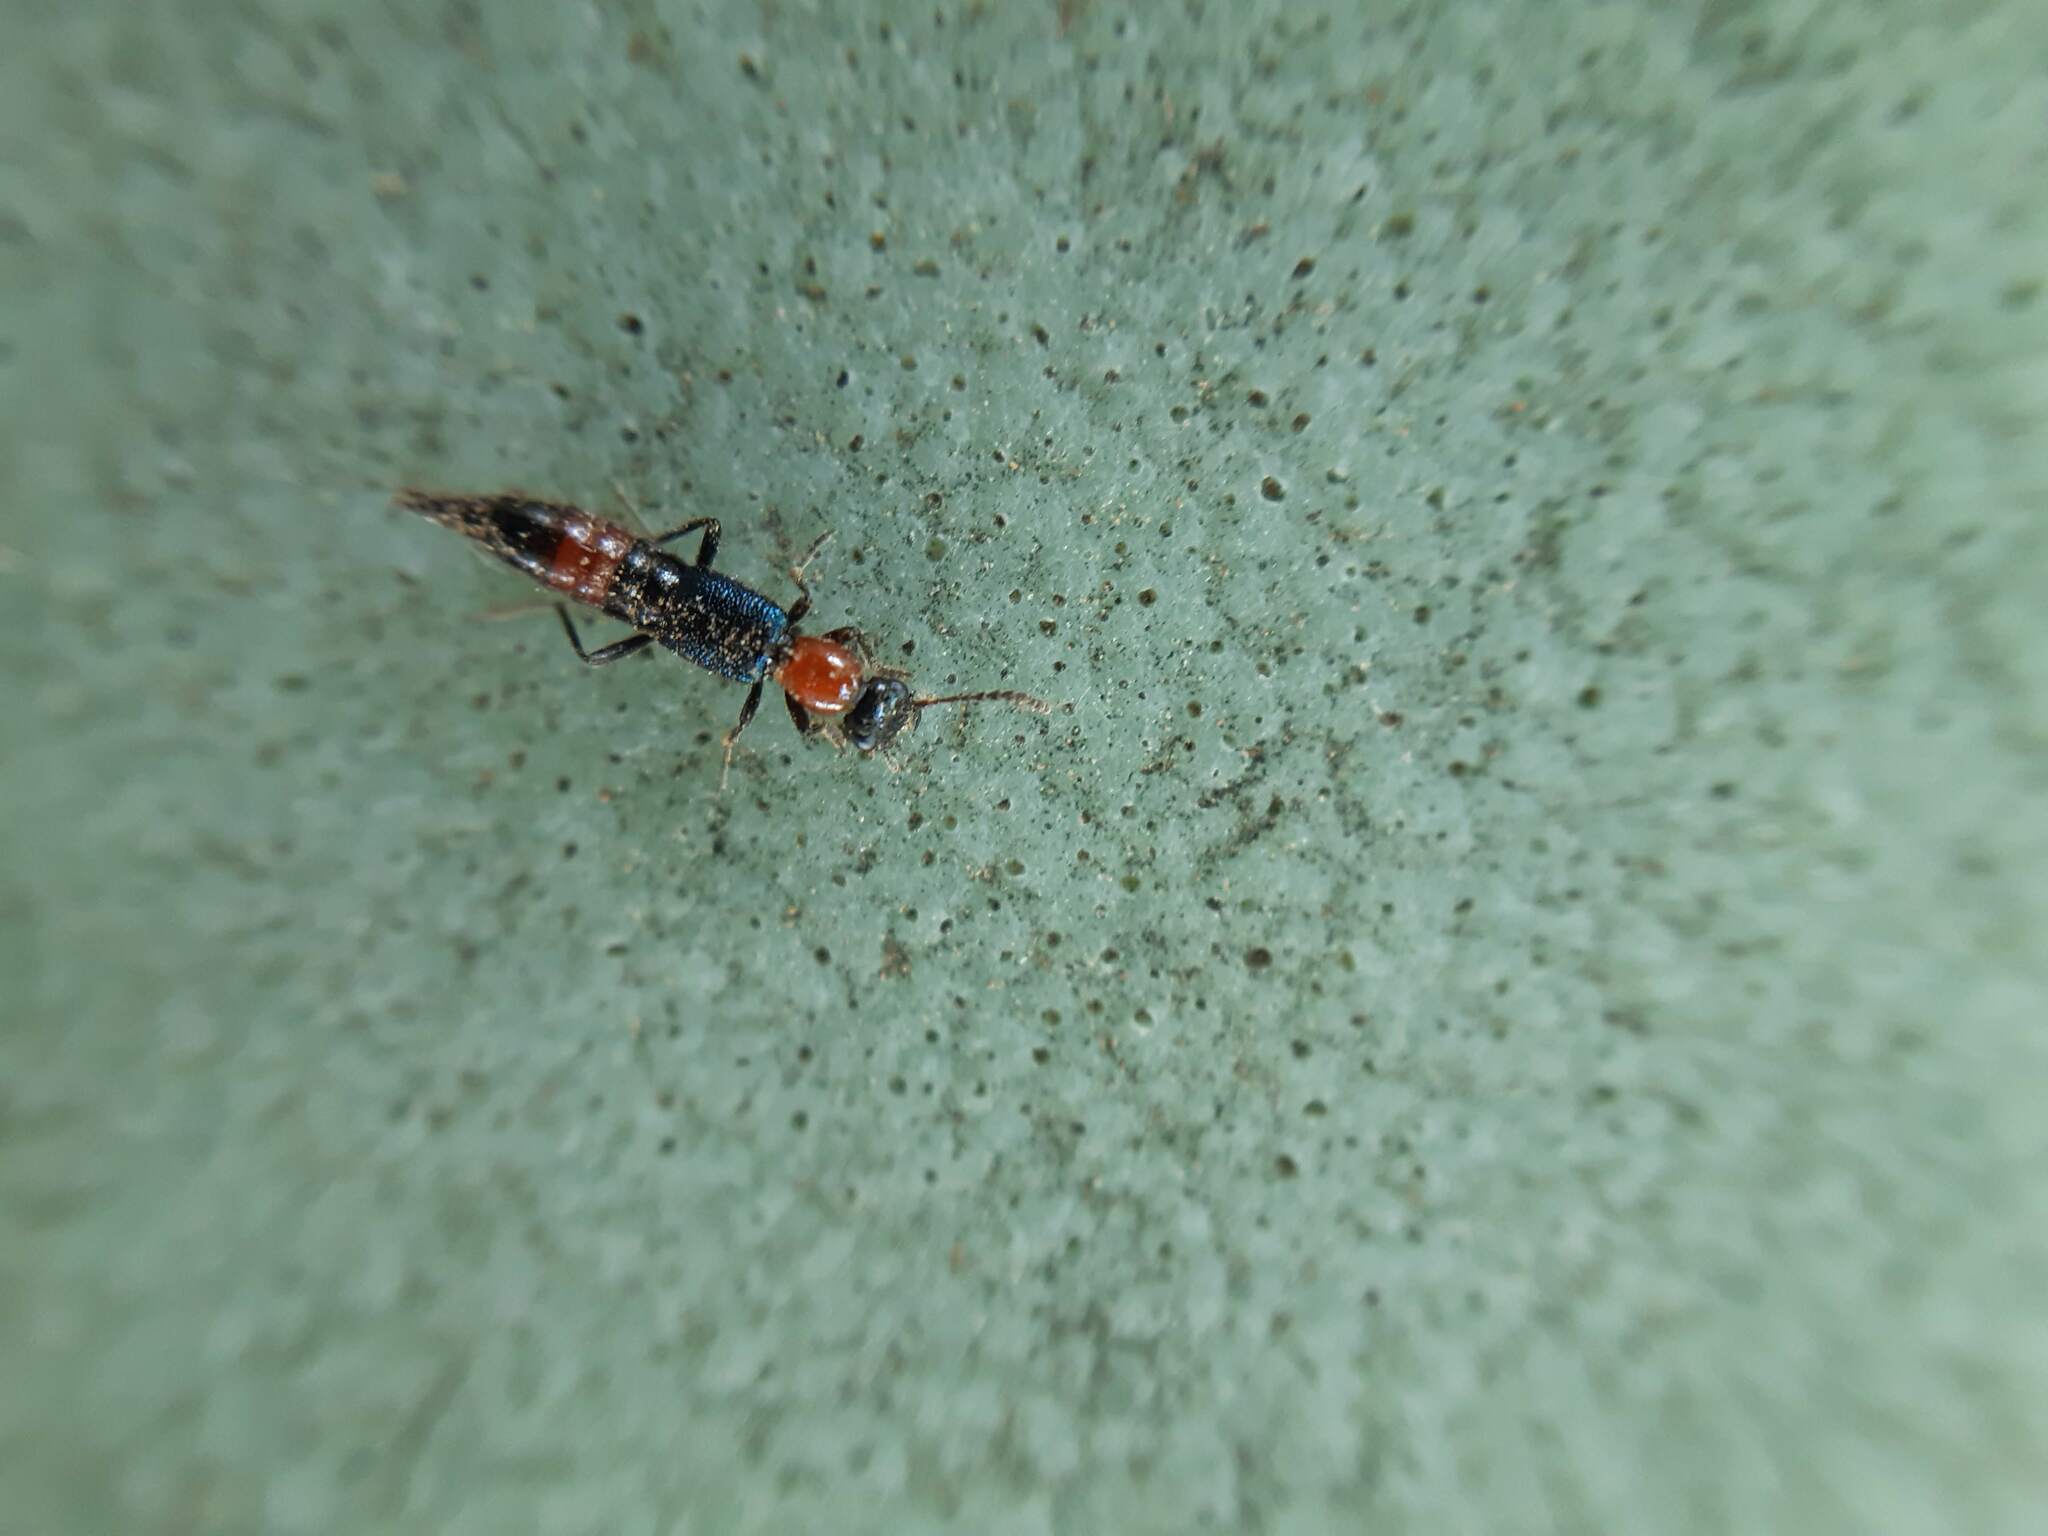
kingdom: Animalia
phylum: Arthropoda
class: Insecta
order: Coleoptera
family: Staphylinidae
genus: Paederus
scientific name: Paederus cruenticollis
